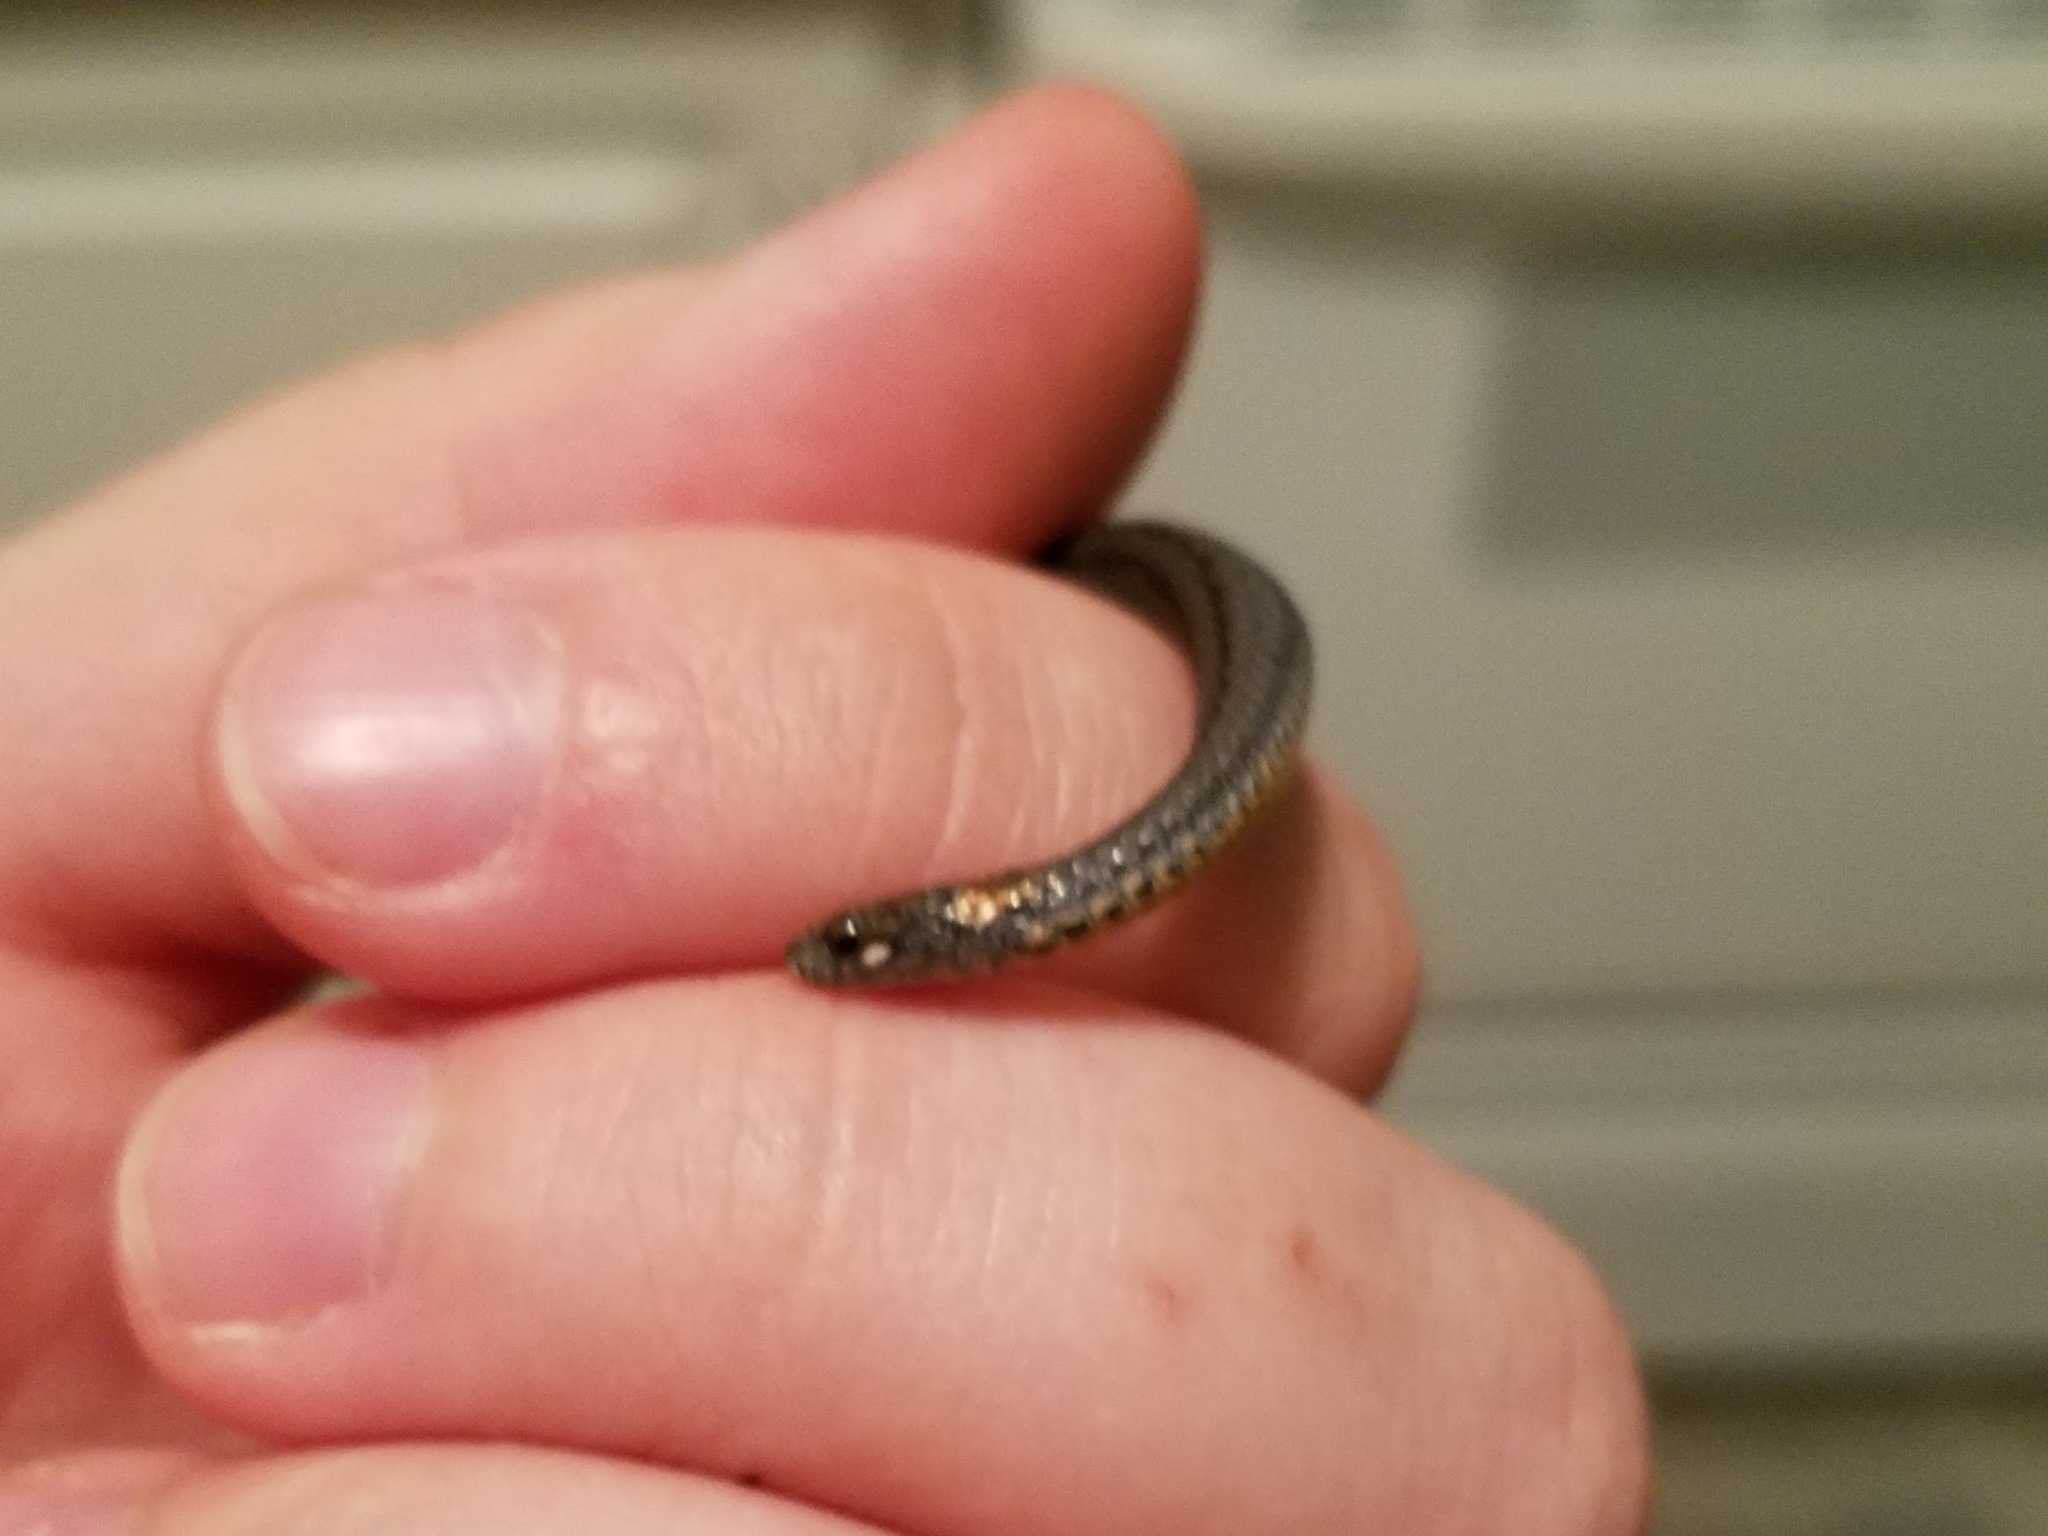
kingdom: Animalia
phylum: Chordata
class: Squamata
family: Colubridae
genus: Storeria
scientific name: Storeria occipitomaculata
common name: Redbelly snake
